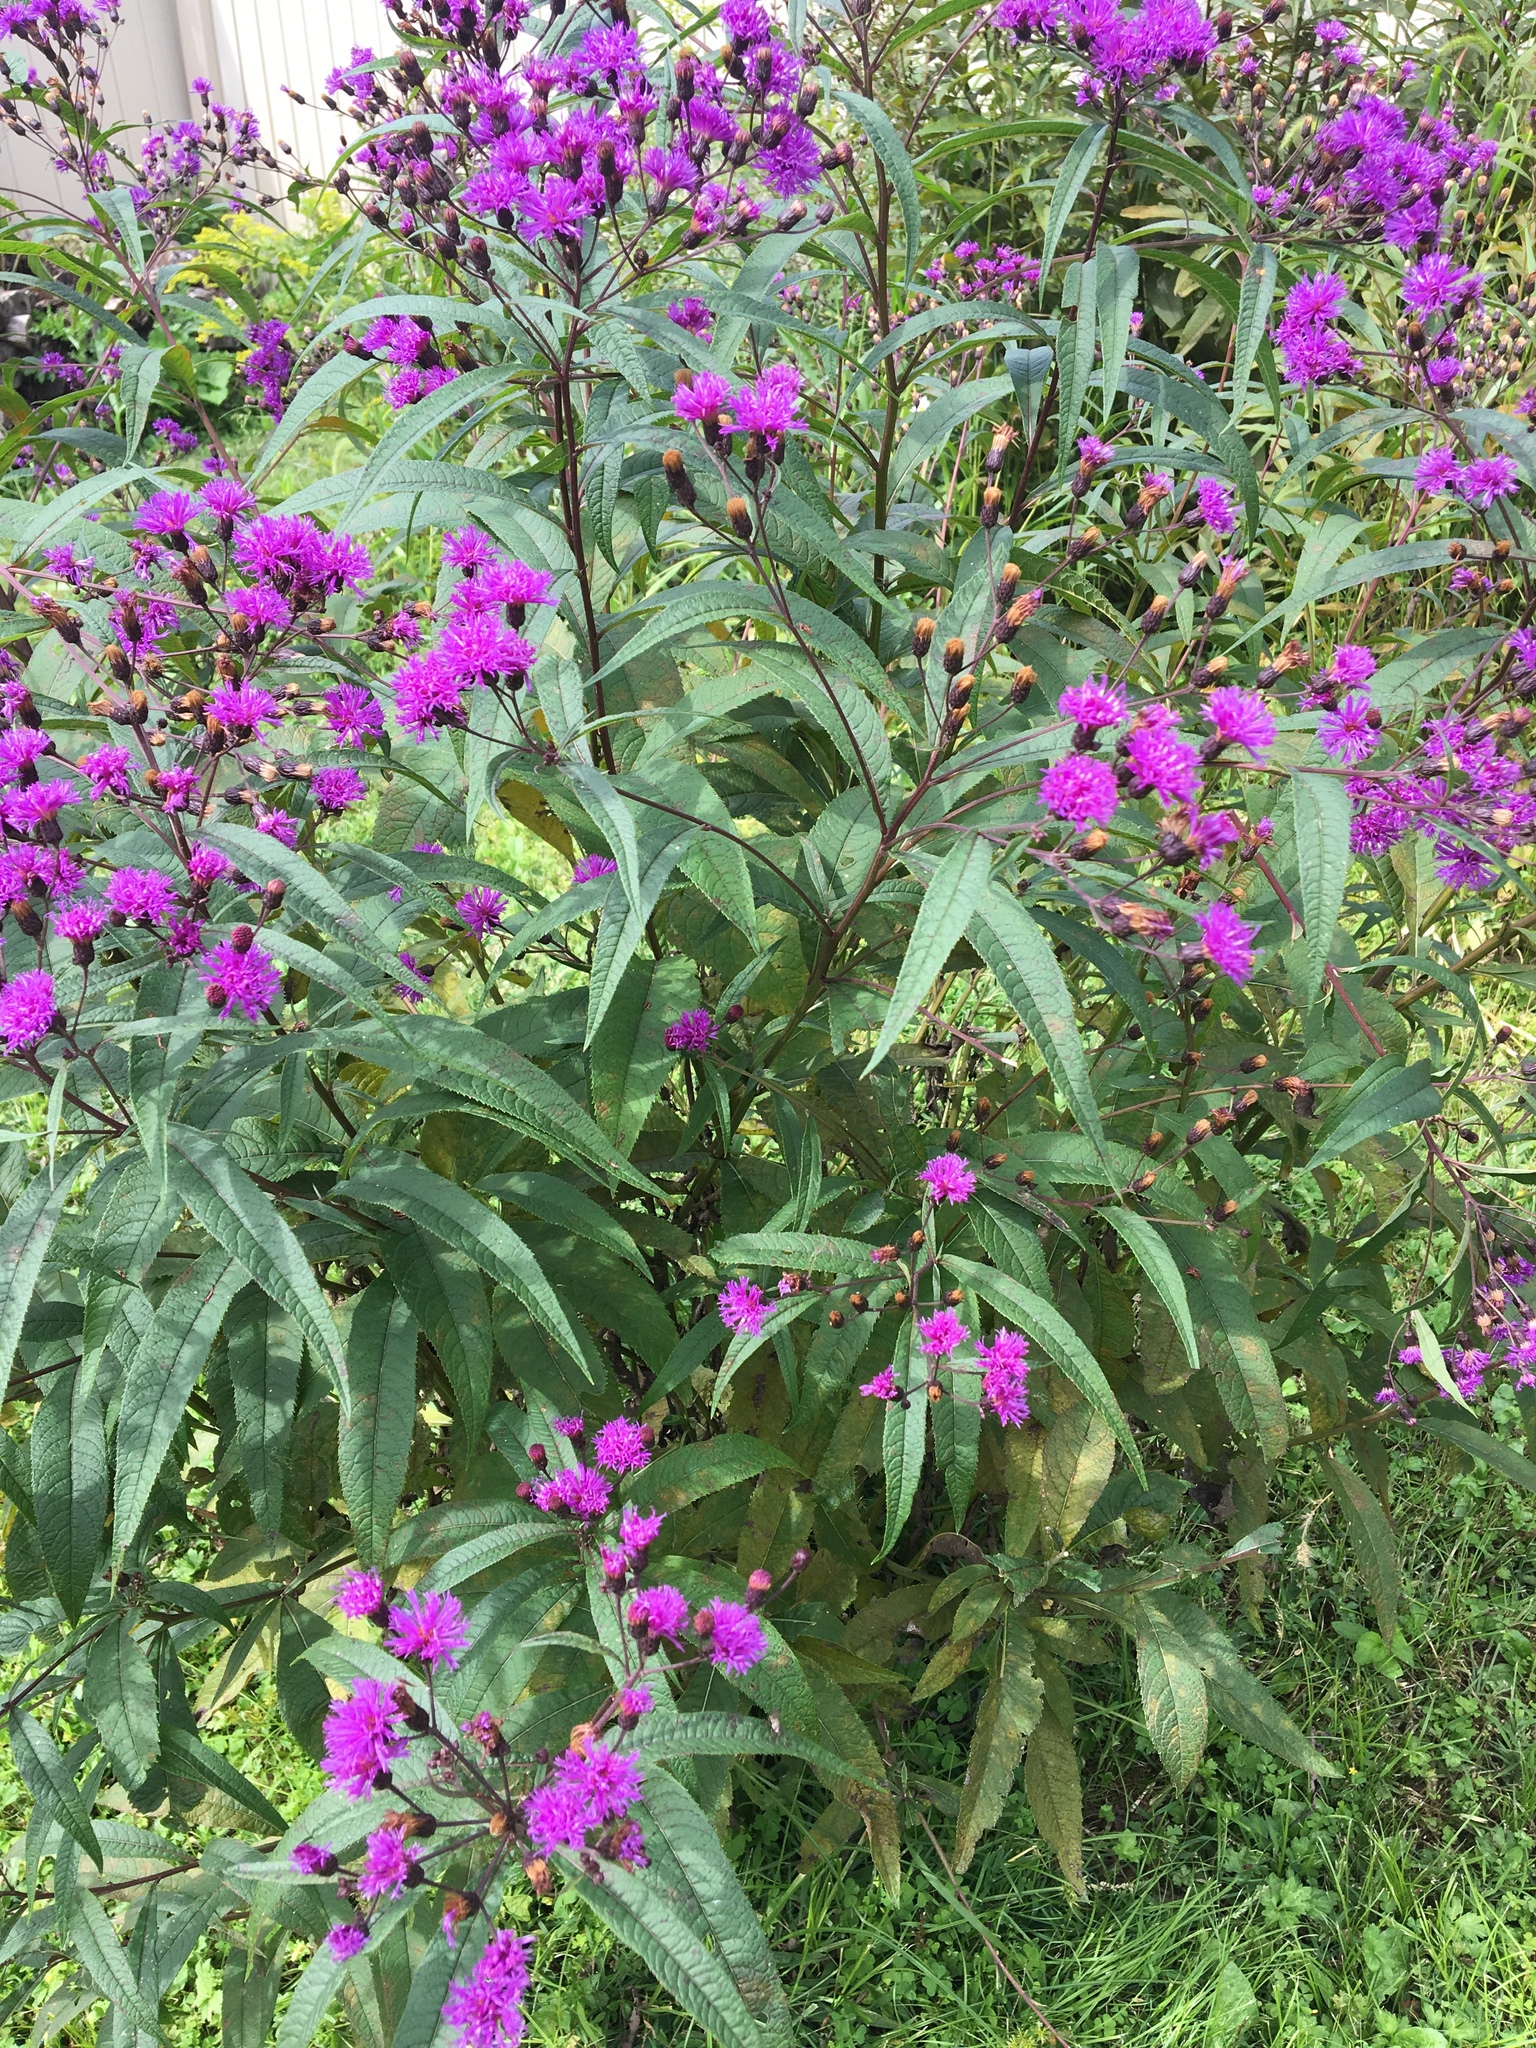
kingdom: Plantae
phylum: Tracheophyta
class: Magnoliopsida
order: Asterales
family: Asteraceae
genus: Vernonia
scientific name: Vernonia noveboracensis
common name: New york ironweed
